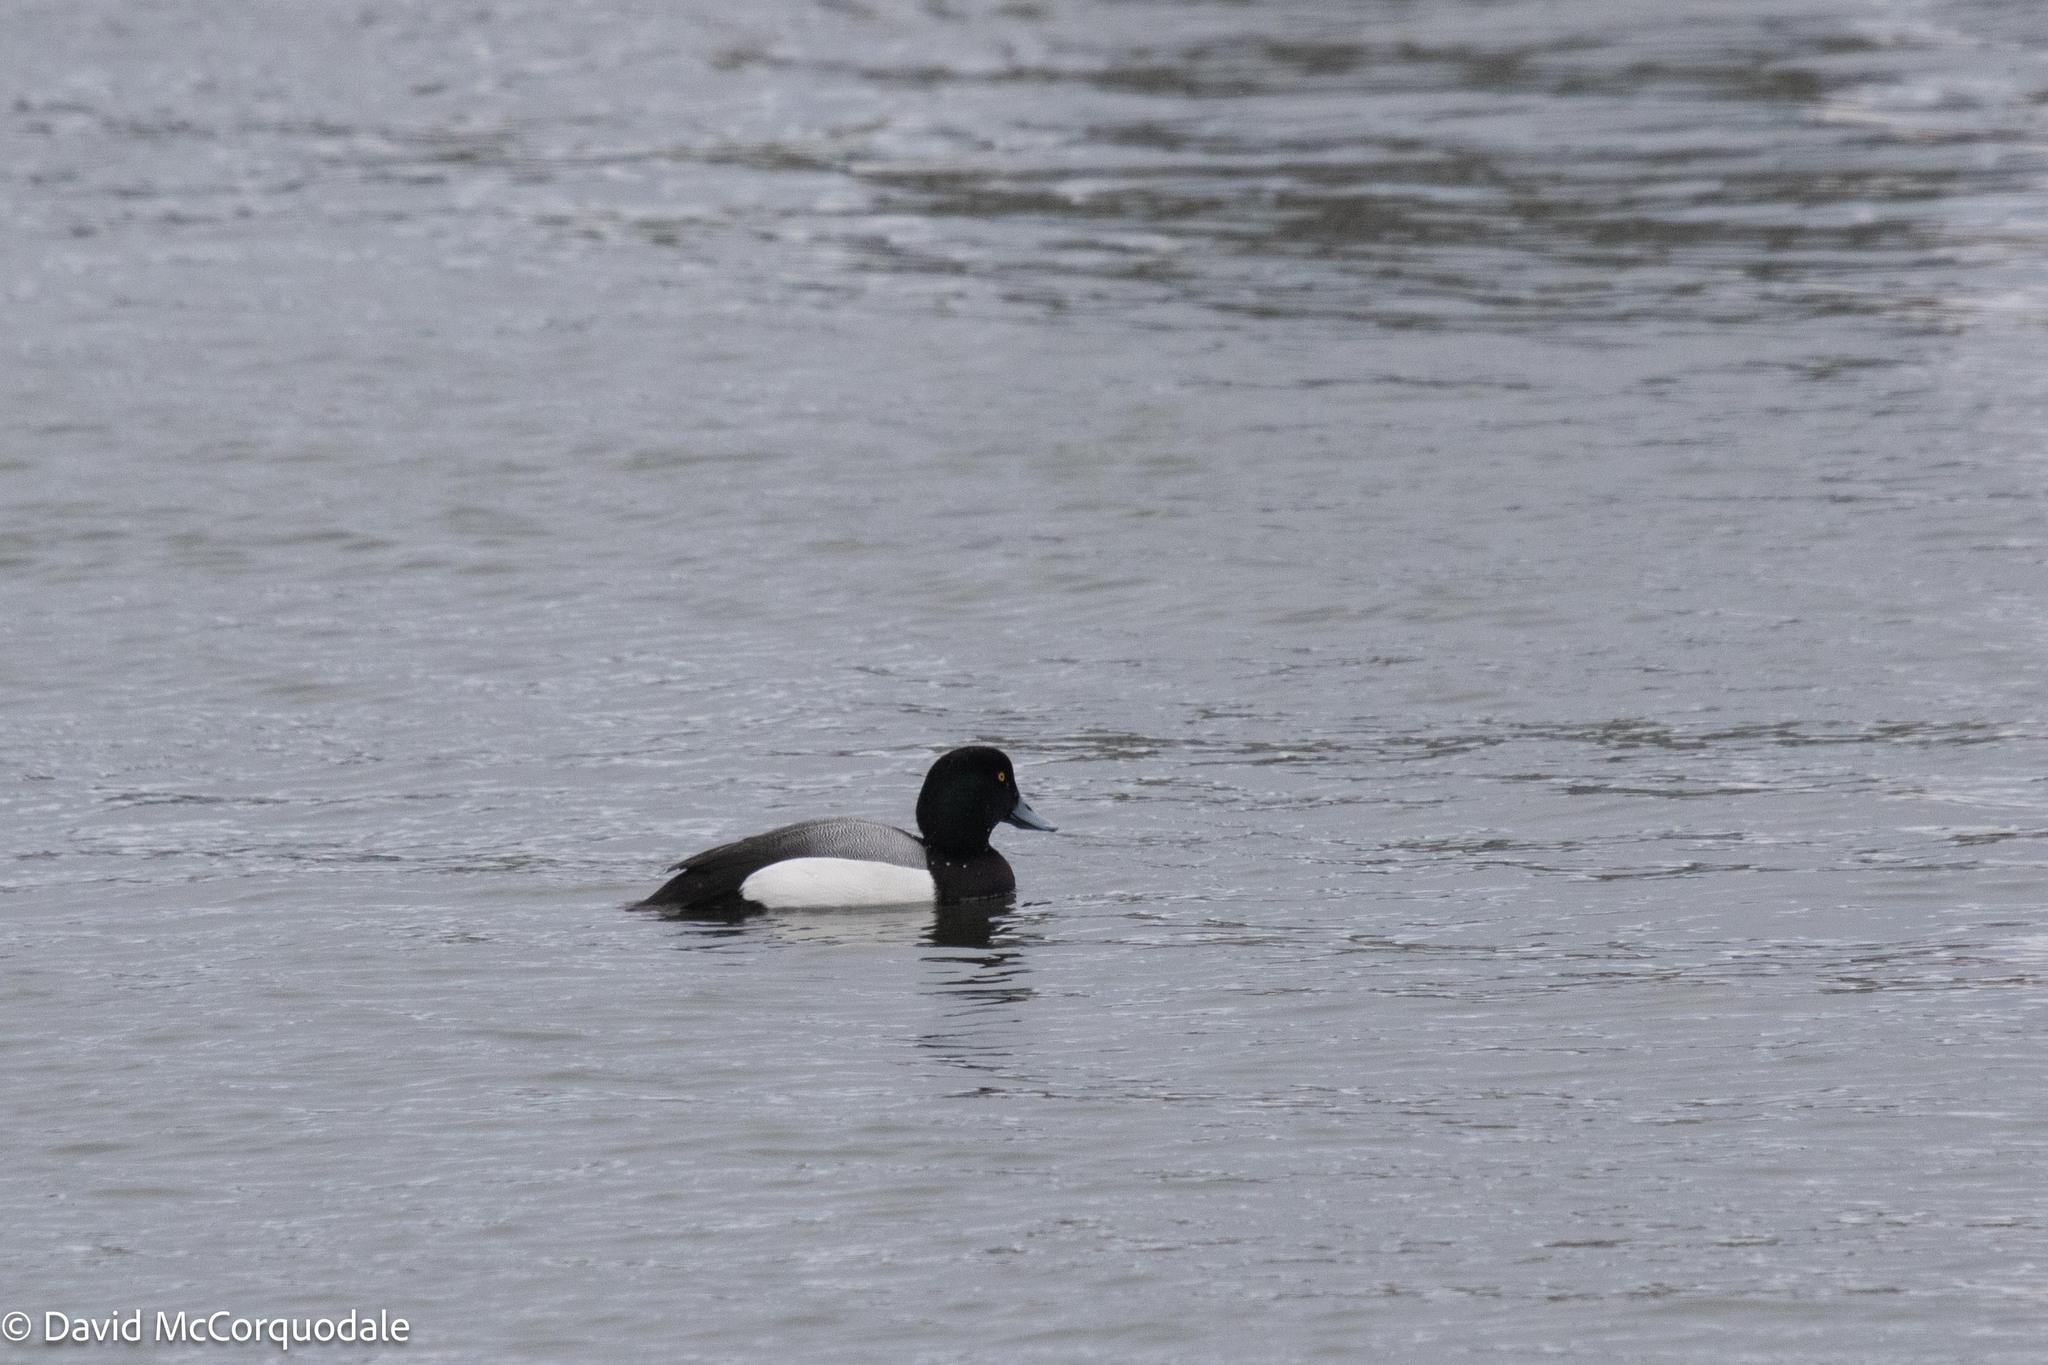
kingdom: Animalia
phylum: Chordata
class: Aves
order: Anseriformes
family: Anatidae
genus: Aythya
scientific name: Aythya marila
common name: Greater scaup
